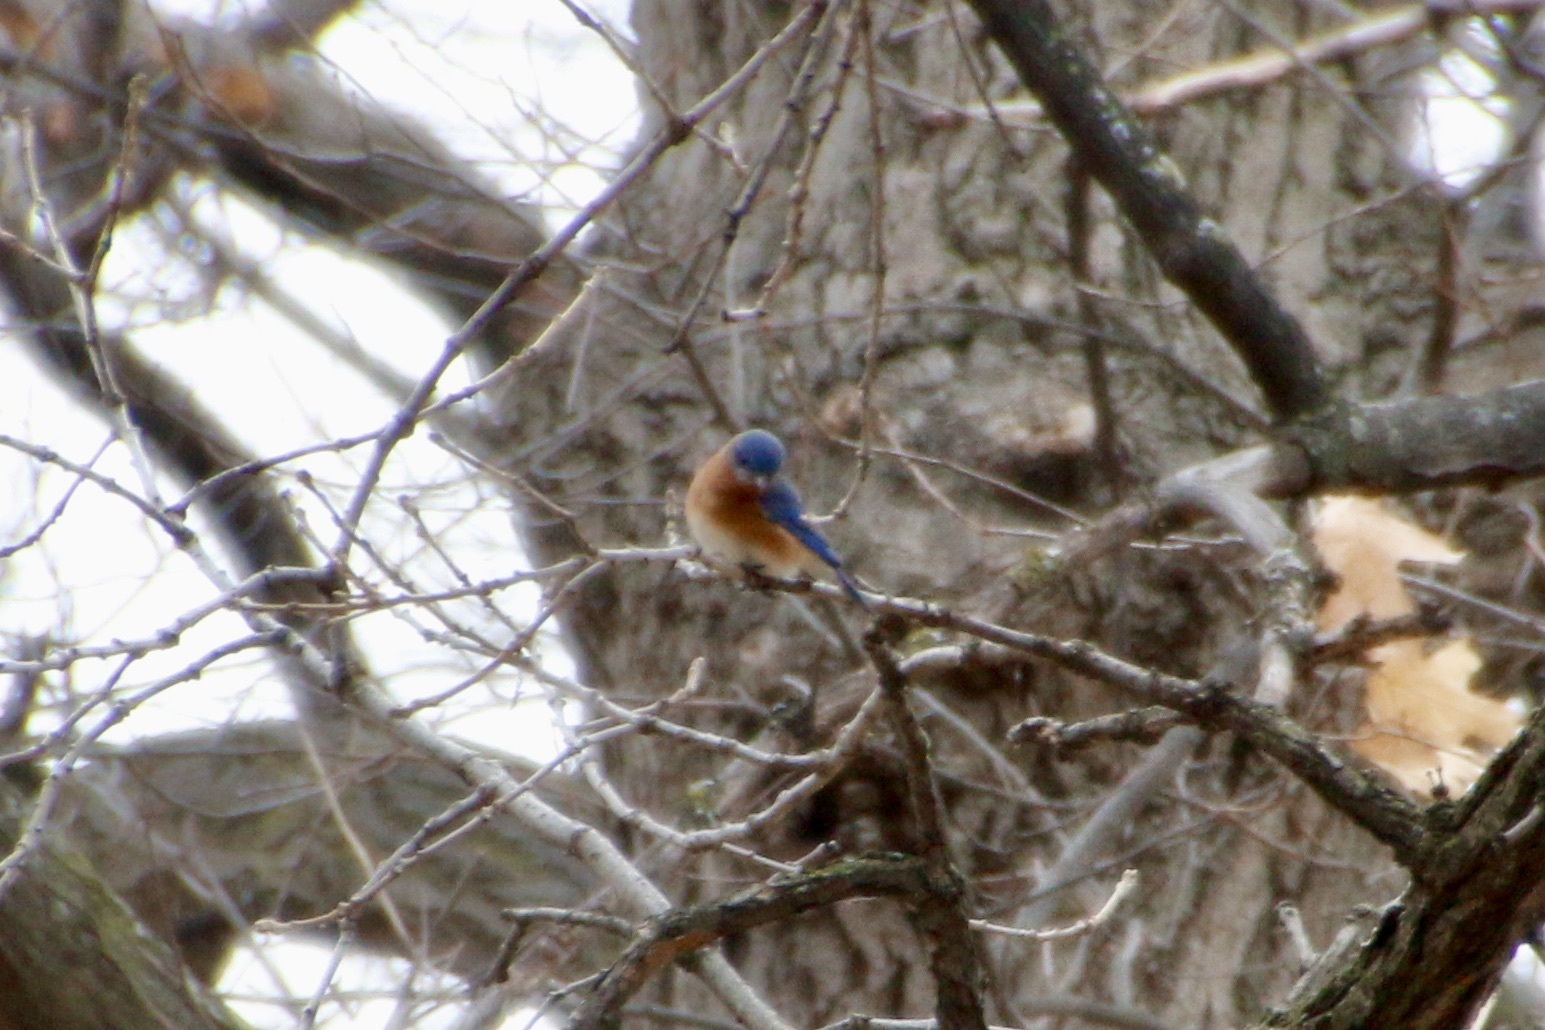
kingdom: Animalia
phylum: Chordata
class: Aves
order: Passeriformes
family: Turdidae
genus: Sialia
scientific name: Sialia sialis
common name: Eastern bluebird
